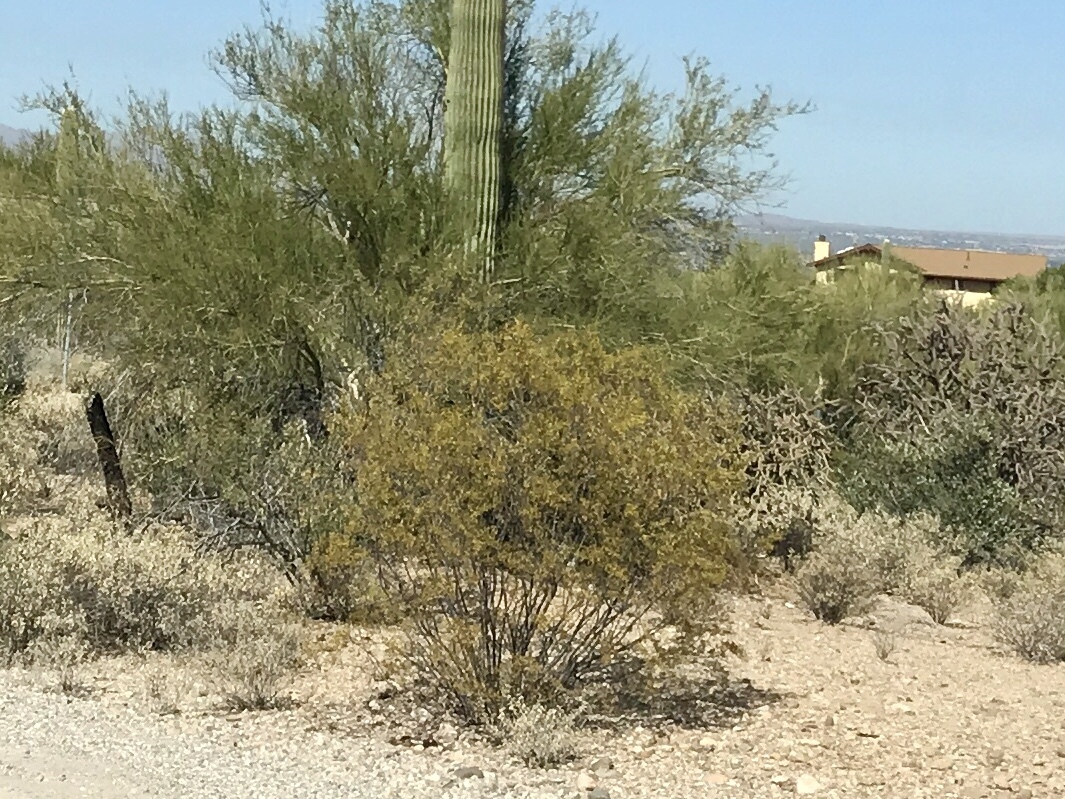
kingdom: Plantae
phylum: Tracheophyta
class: Magnoliopsida
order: Zygophyllales
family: Zygophyllaceae
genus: Larrea
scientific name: Larrea tridentata
